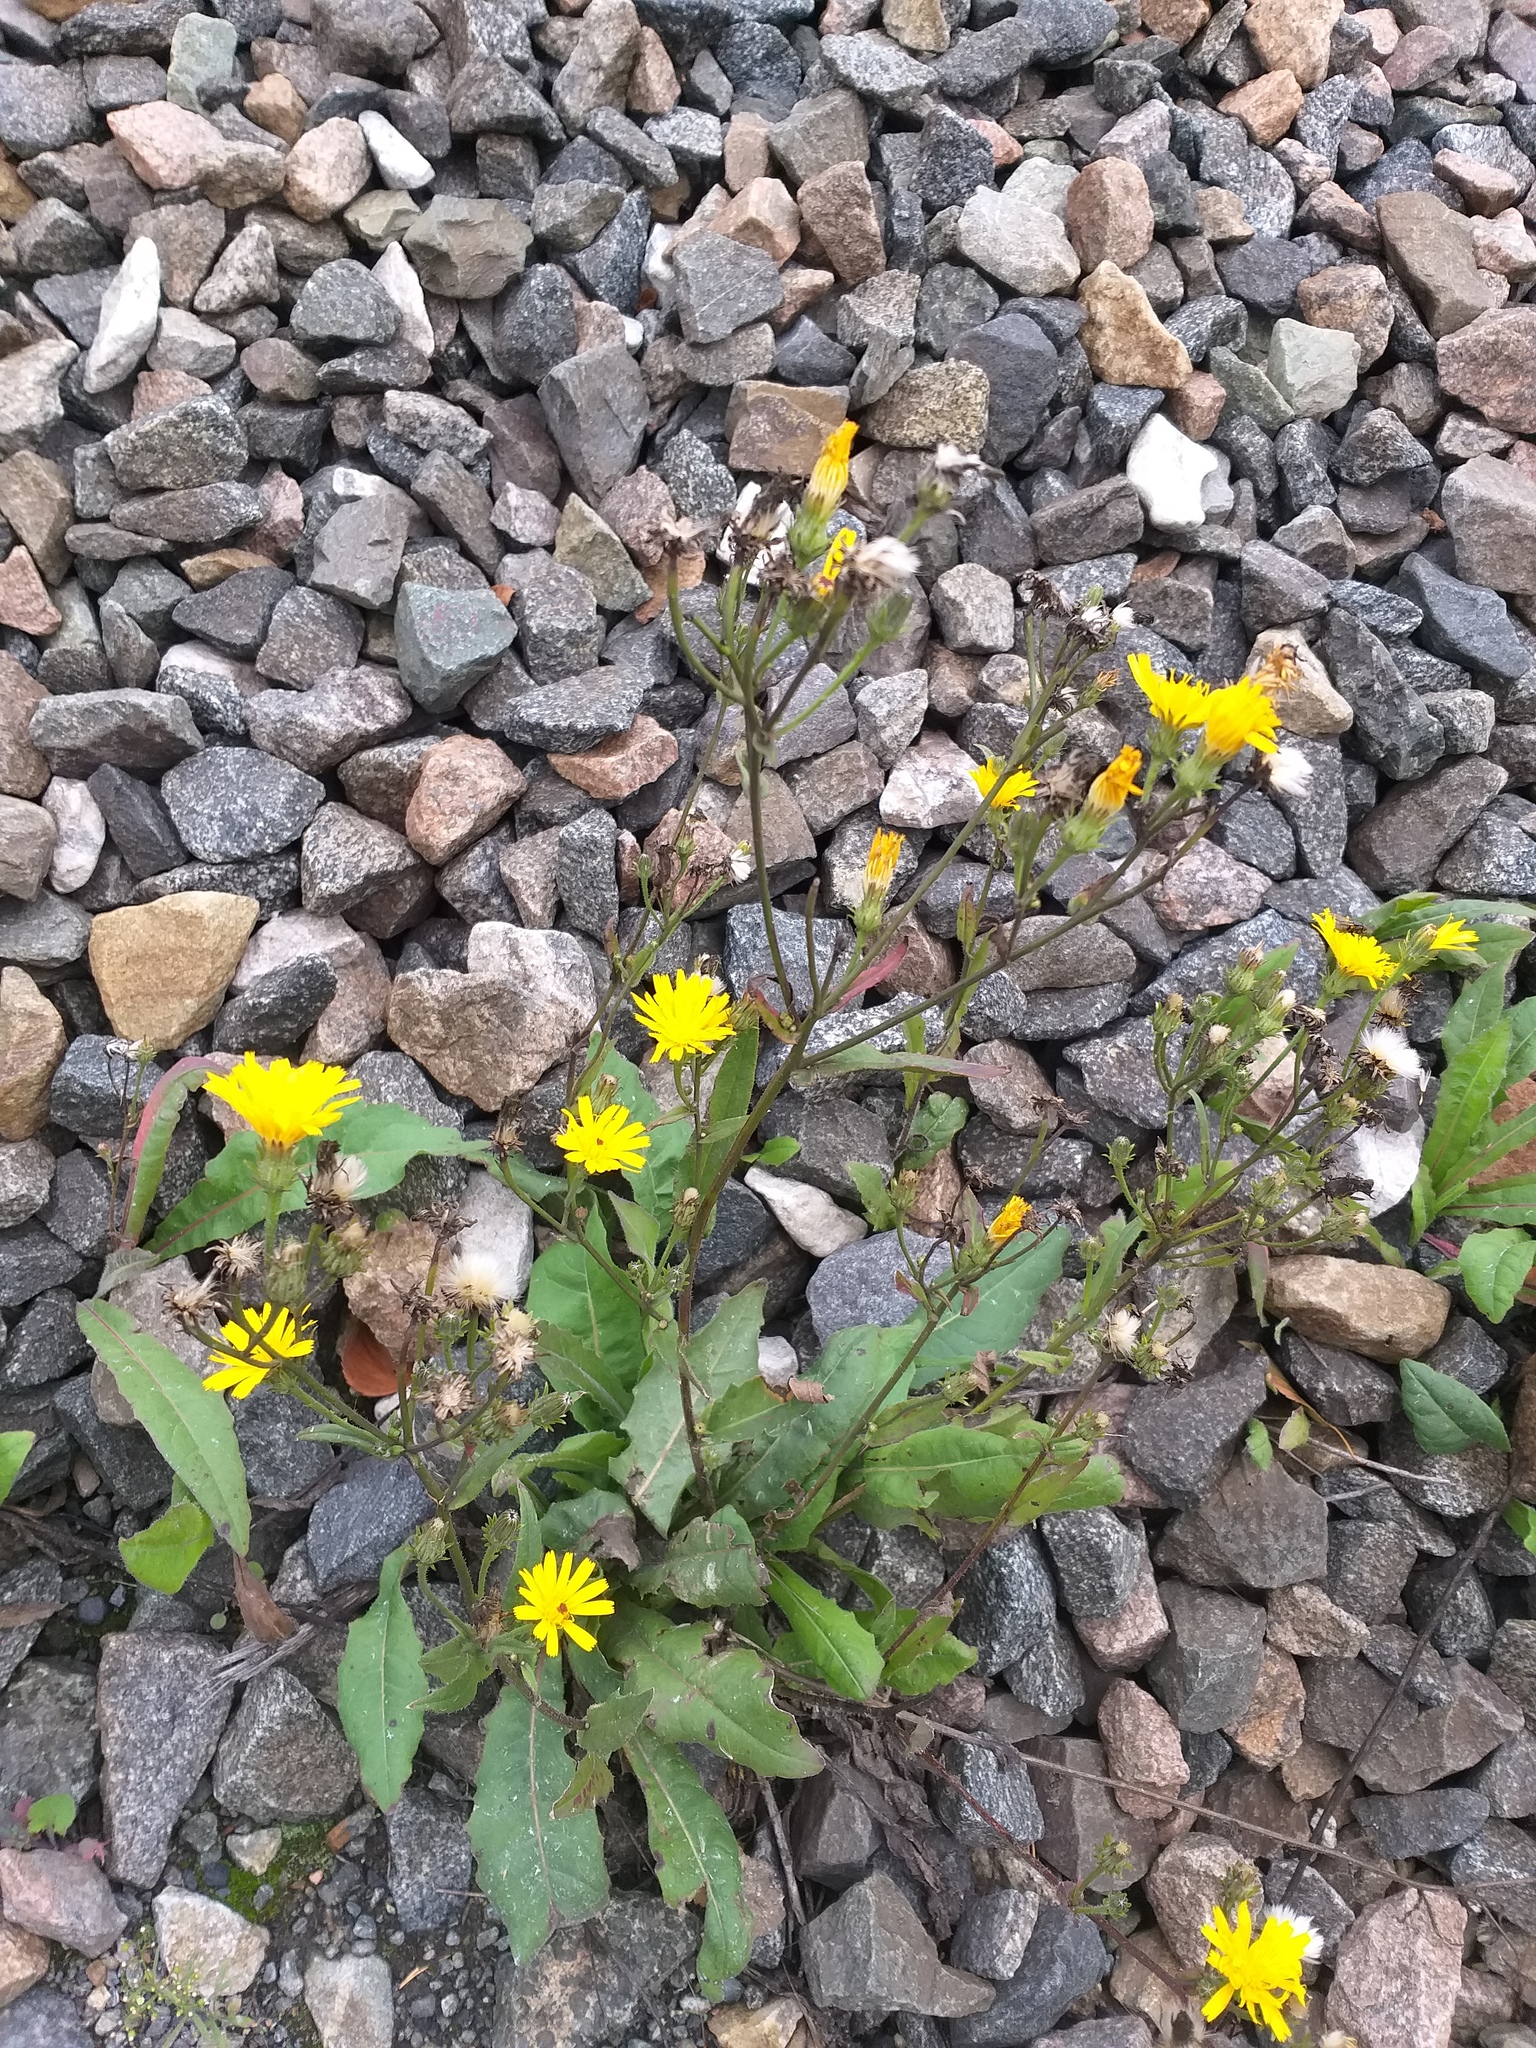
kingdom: Plantae
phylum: Tracheophyta
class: Magnoliopsida
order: Asterales
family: Asteraceae
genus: Picris
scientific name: Picris hieracioides
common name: Hawkweed oxtongue
